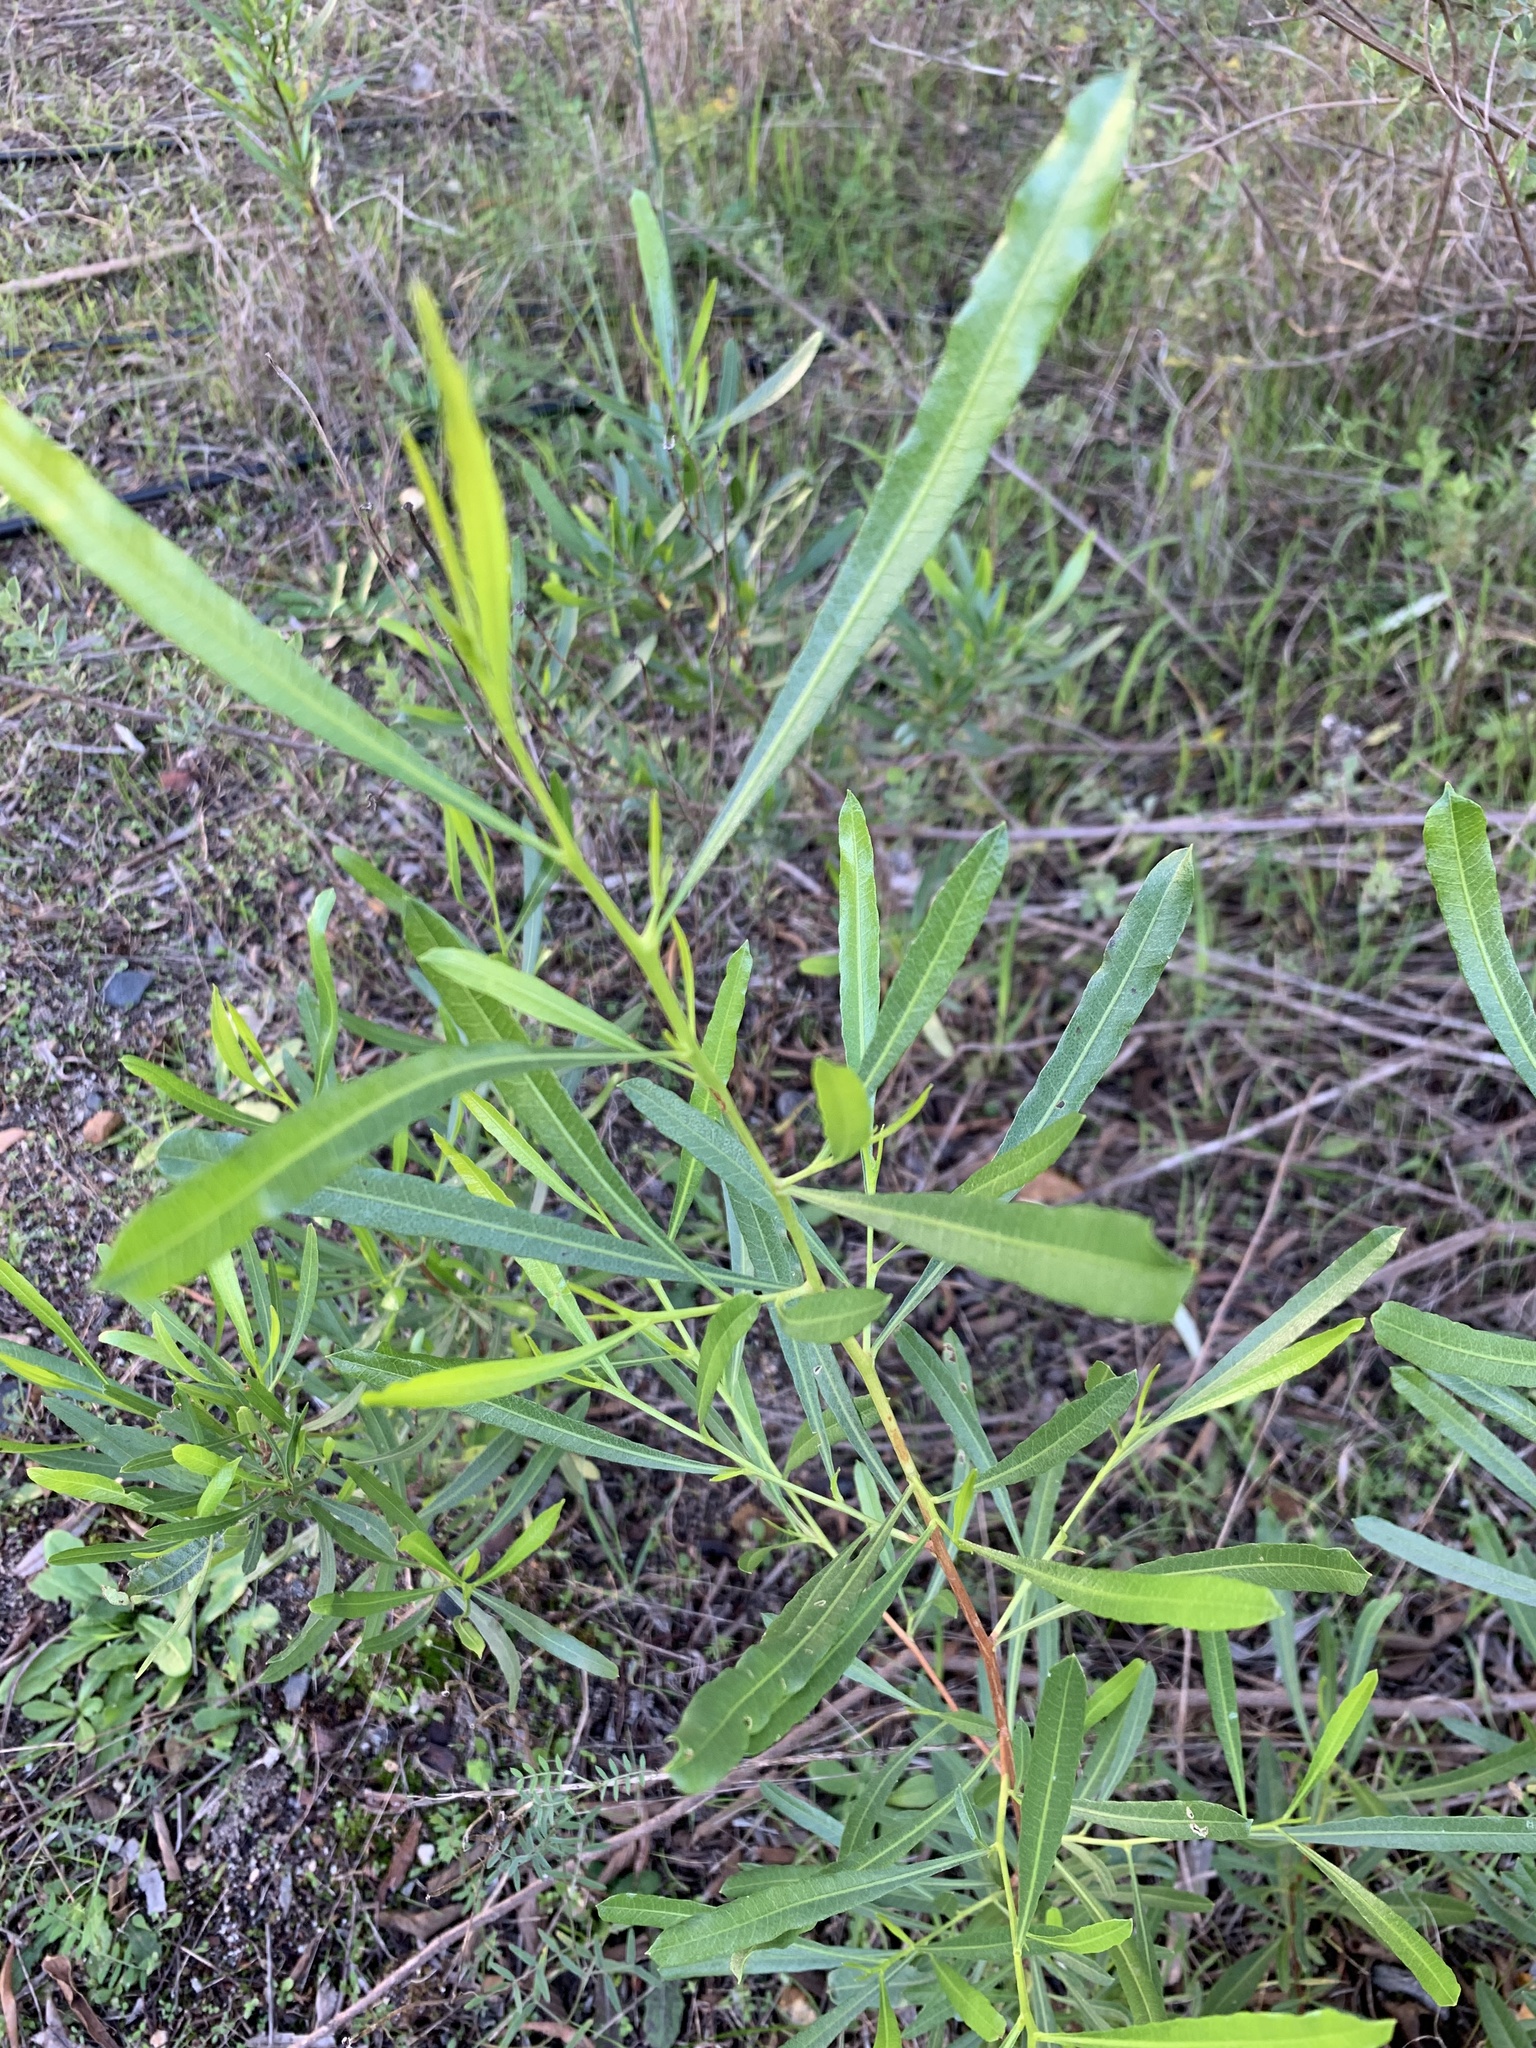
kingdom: Plantae
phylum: Tracheophyta
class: Magnoliopsida
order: Sapindales
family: Sapindaceae
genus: Dodonaea
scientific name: Dodonaea viscosa
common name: Hopbush
